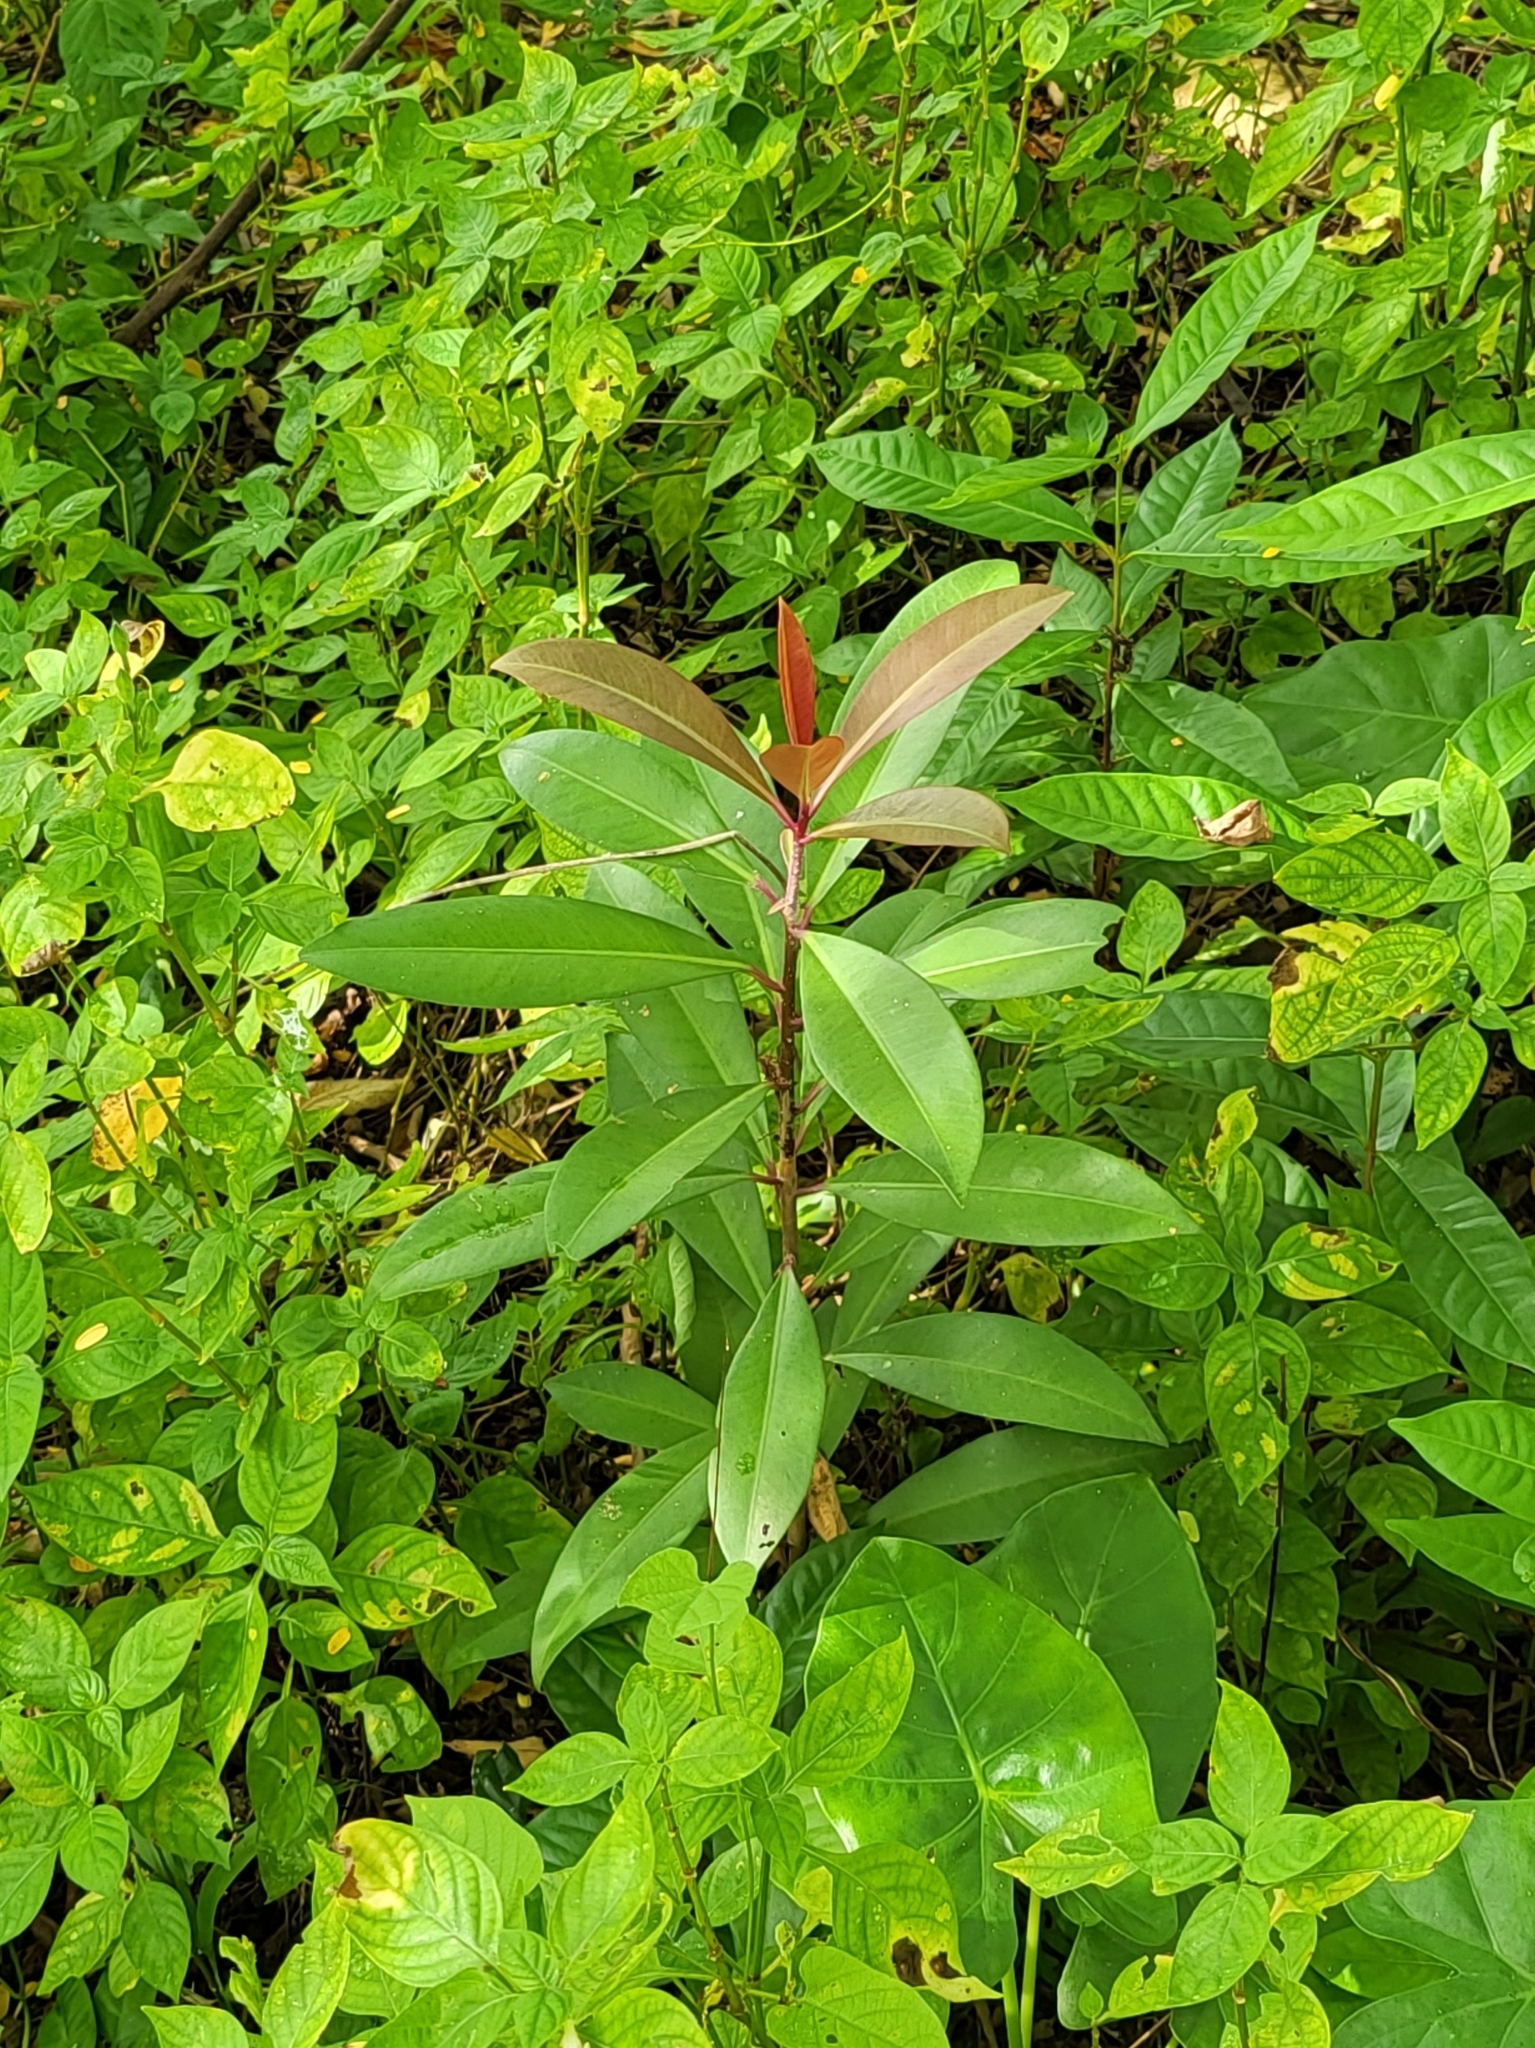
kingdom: Plantae
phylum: Tracheophyta
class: Magnoliopsida
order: Ericales
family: Primulaceae
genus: Ardisia
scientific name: Ardisia elliptica
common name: Shoebutton
